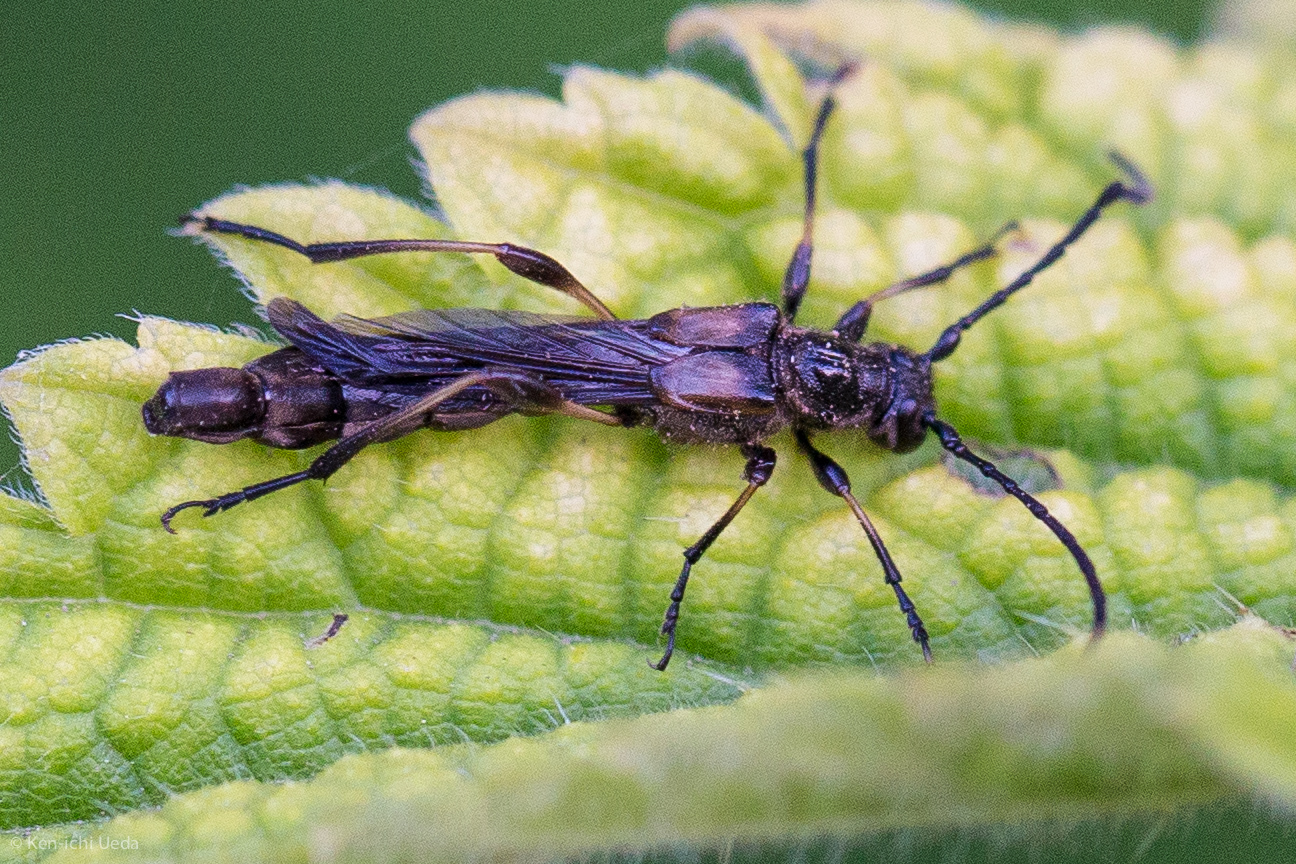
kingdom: Animalia
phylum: Arthropoda
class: Insecta
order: Coleoptera
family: Cerambycidae
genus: Necydalis
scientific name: Necydalis cavipennis
